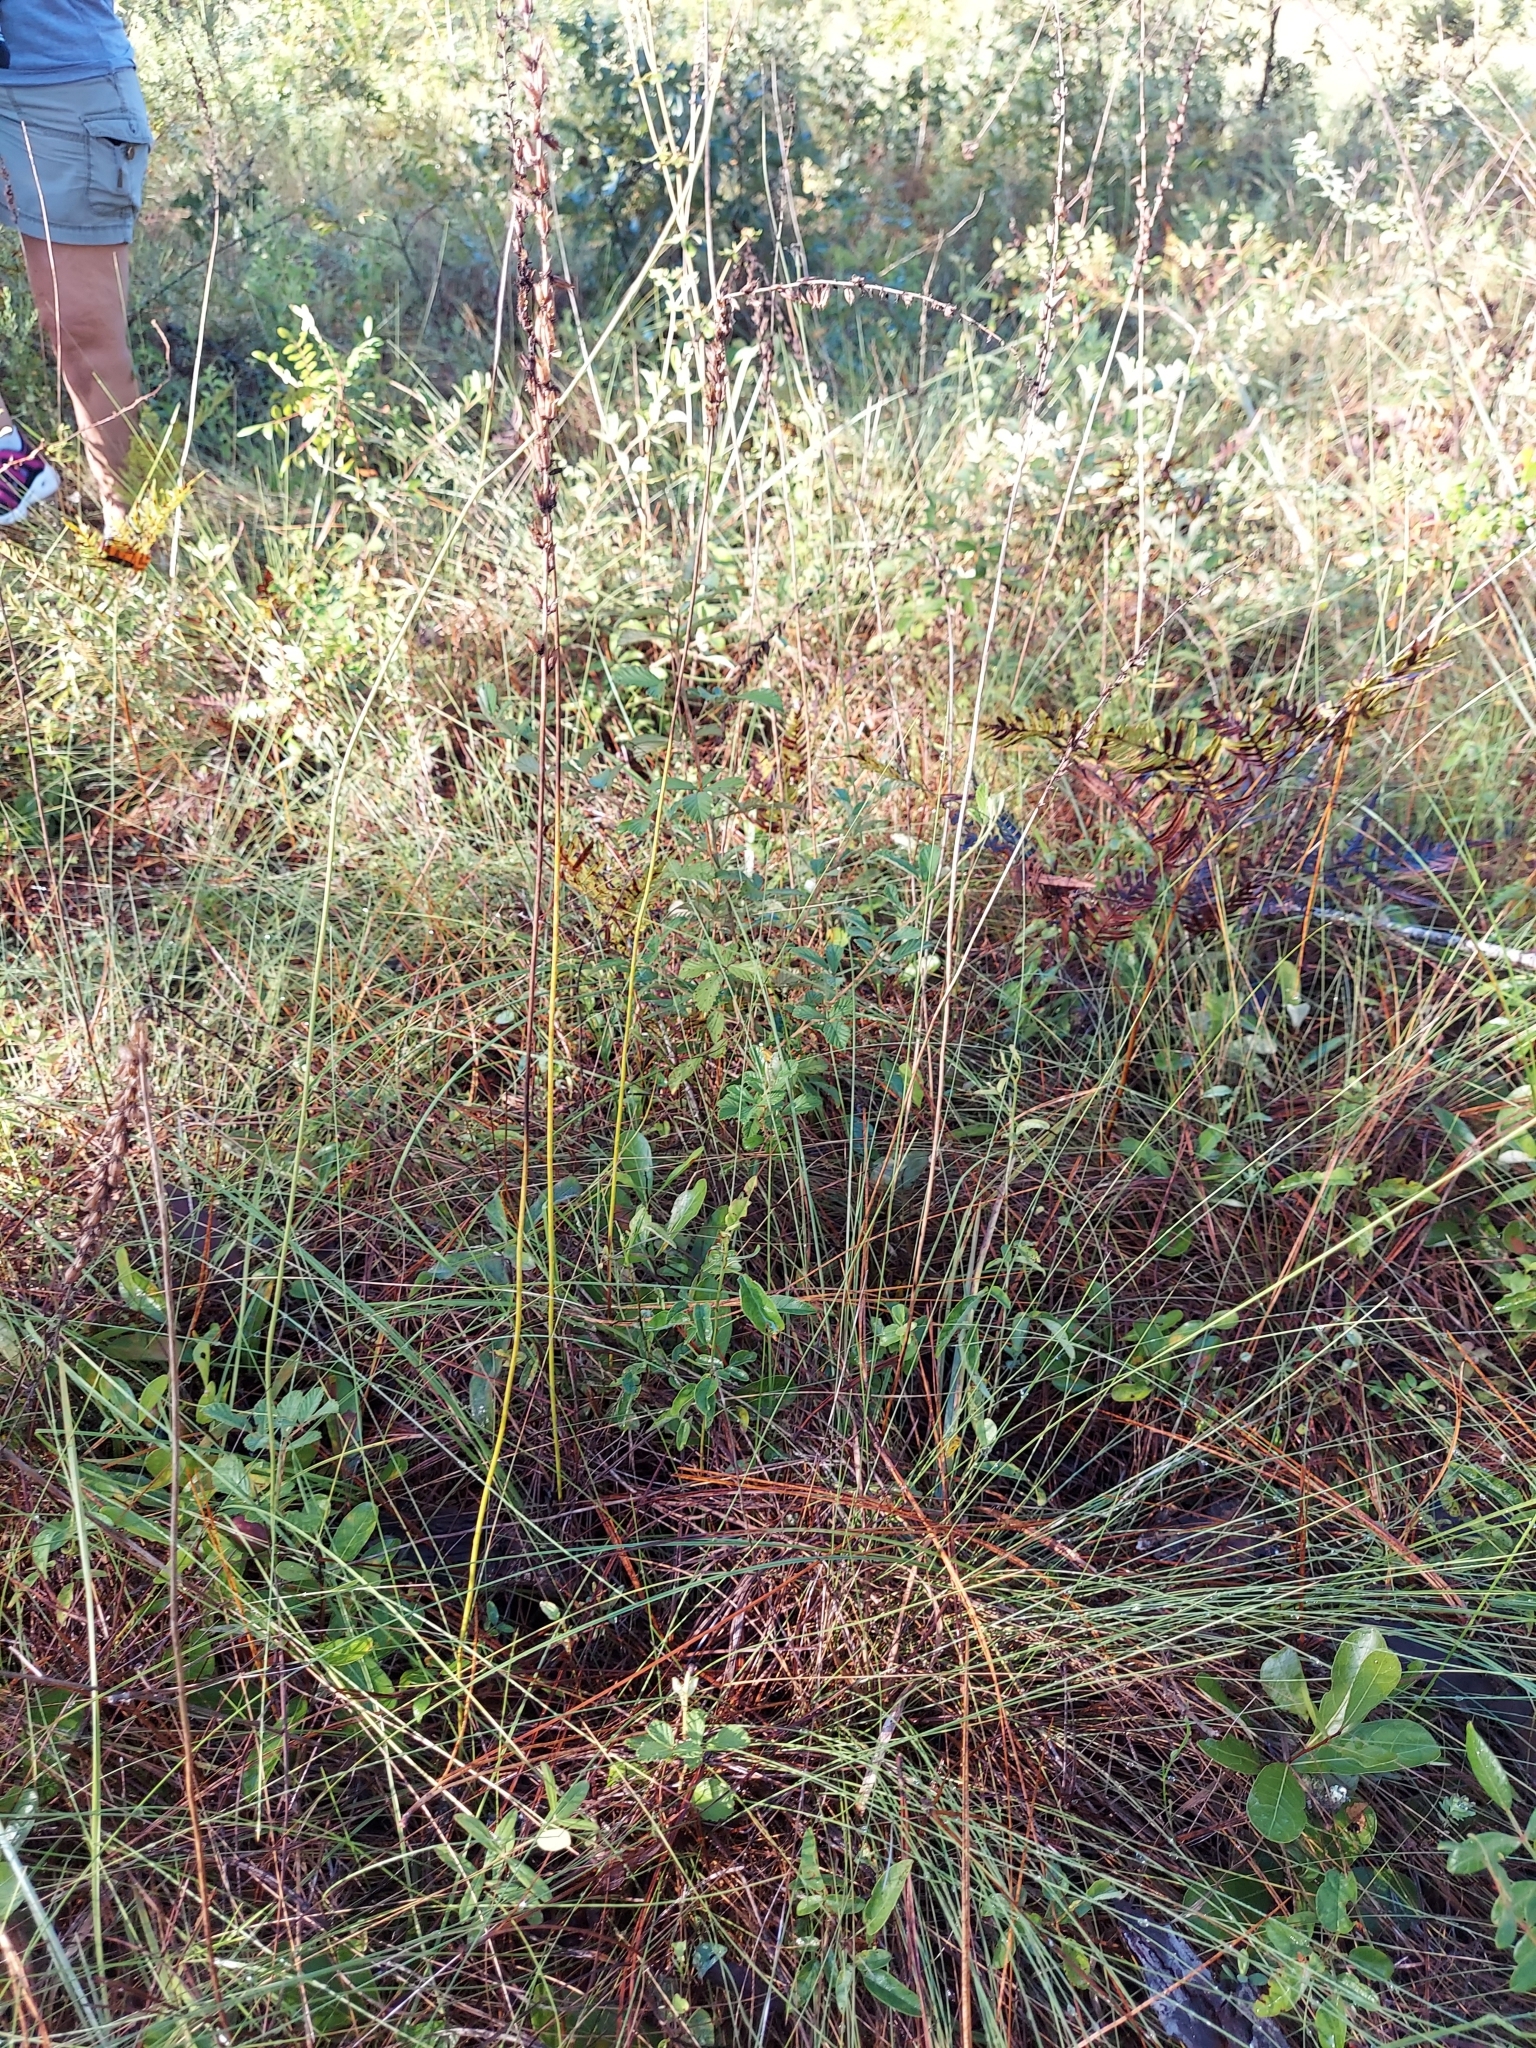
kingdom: Plantae
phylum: Tracheophyta
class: Liliopsida
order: Liliales
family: Melanthiaceae
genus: Schoenocaulon
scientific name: Schoenocaulon dubium
